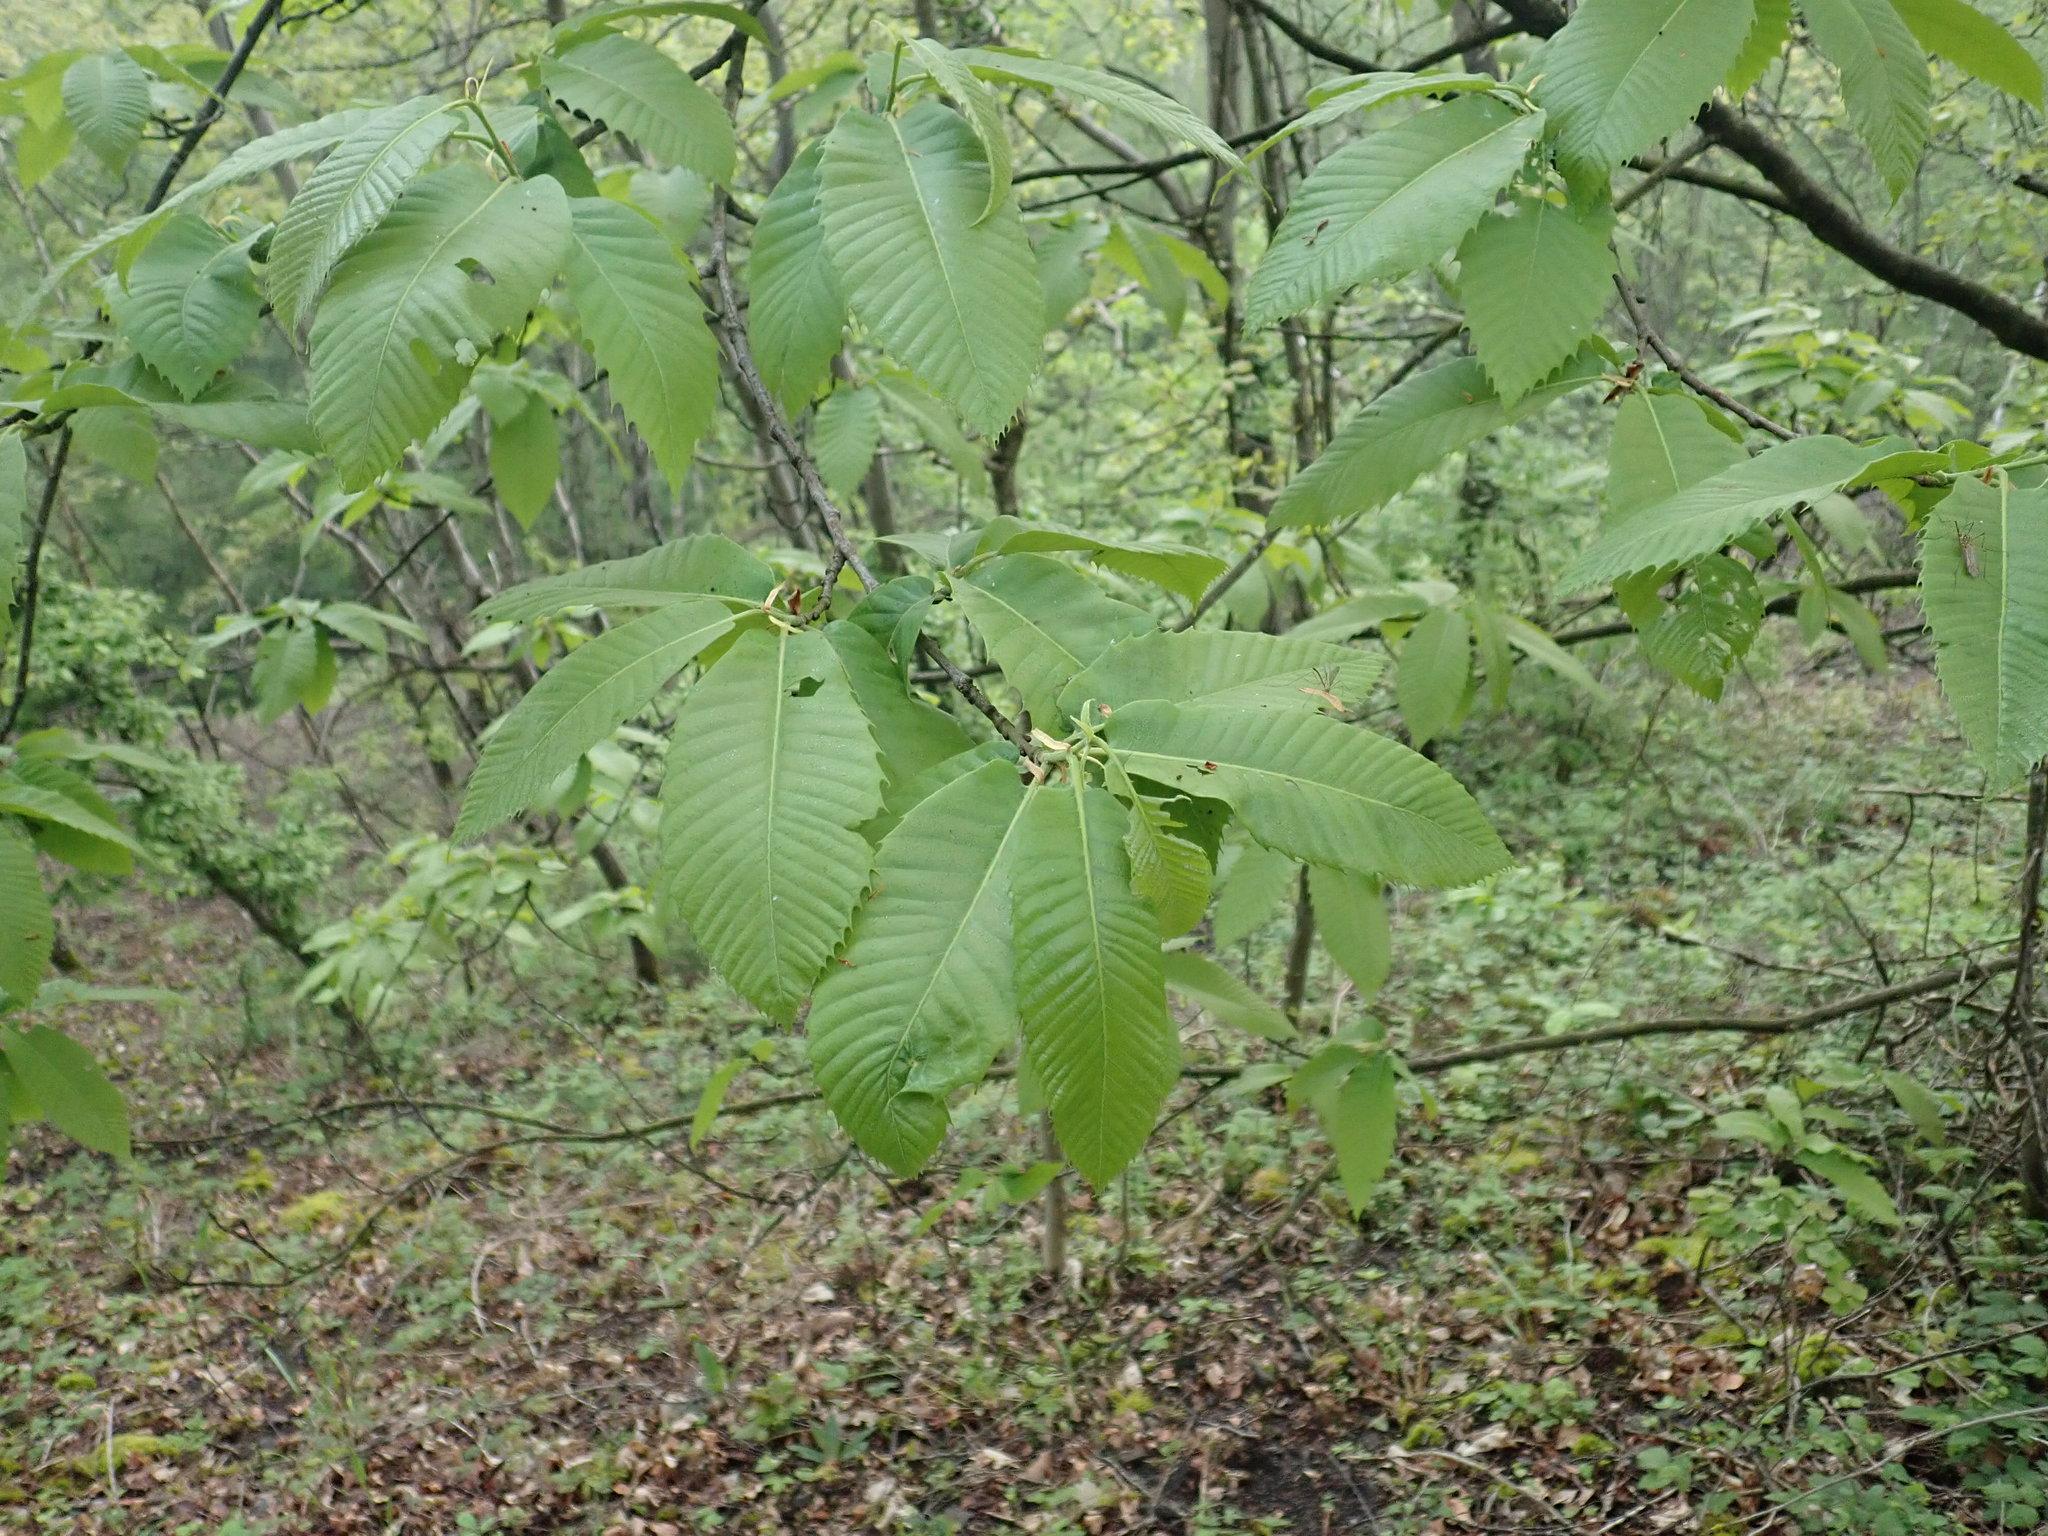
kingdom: Plantae
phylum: Tracheophyta
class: Magnoliopsida
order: Fagales
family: Fagaceae
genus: Castanea
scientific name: Castanea sativa
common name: Sweet chestnut
